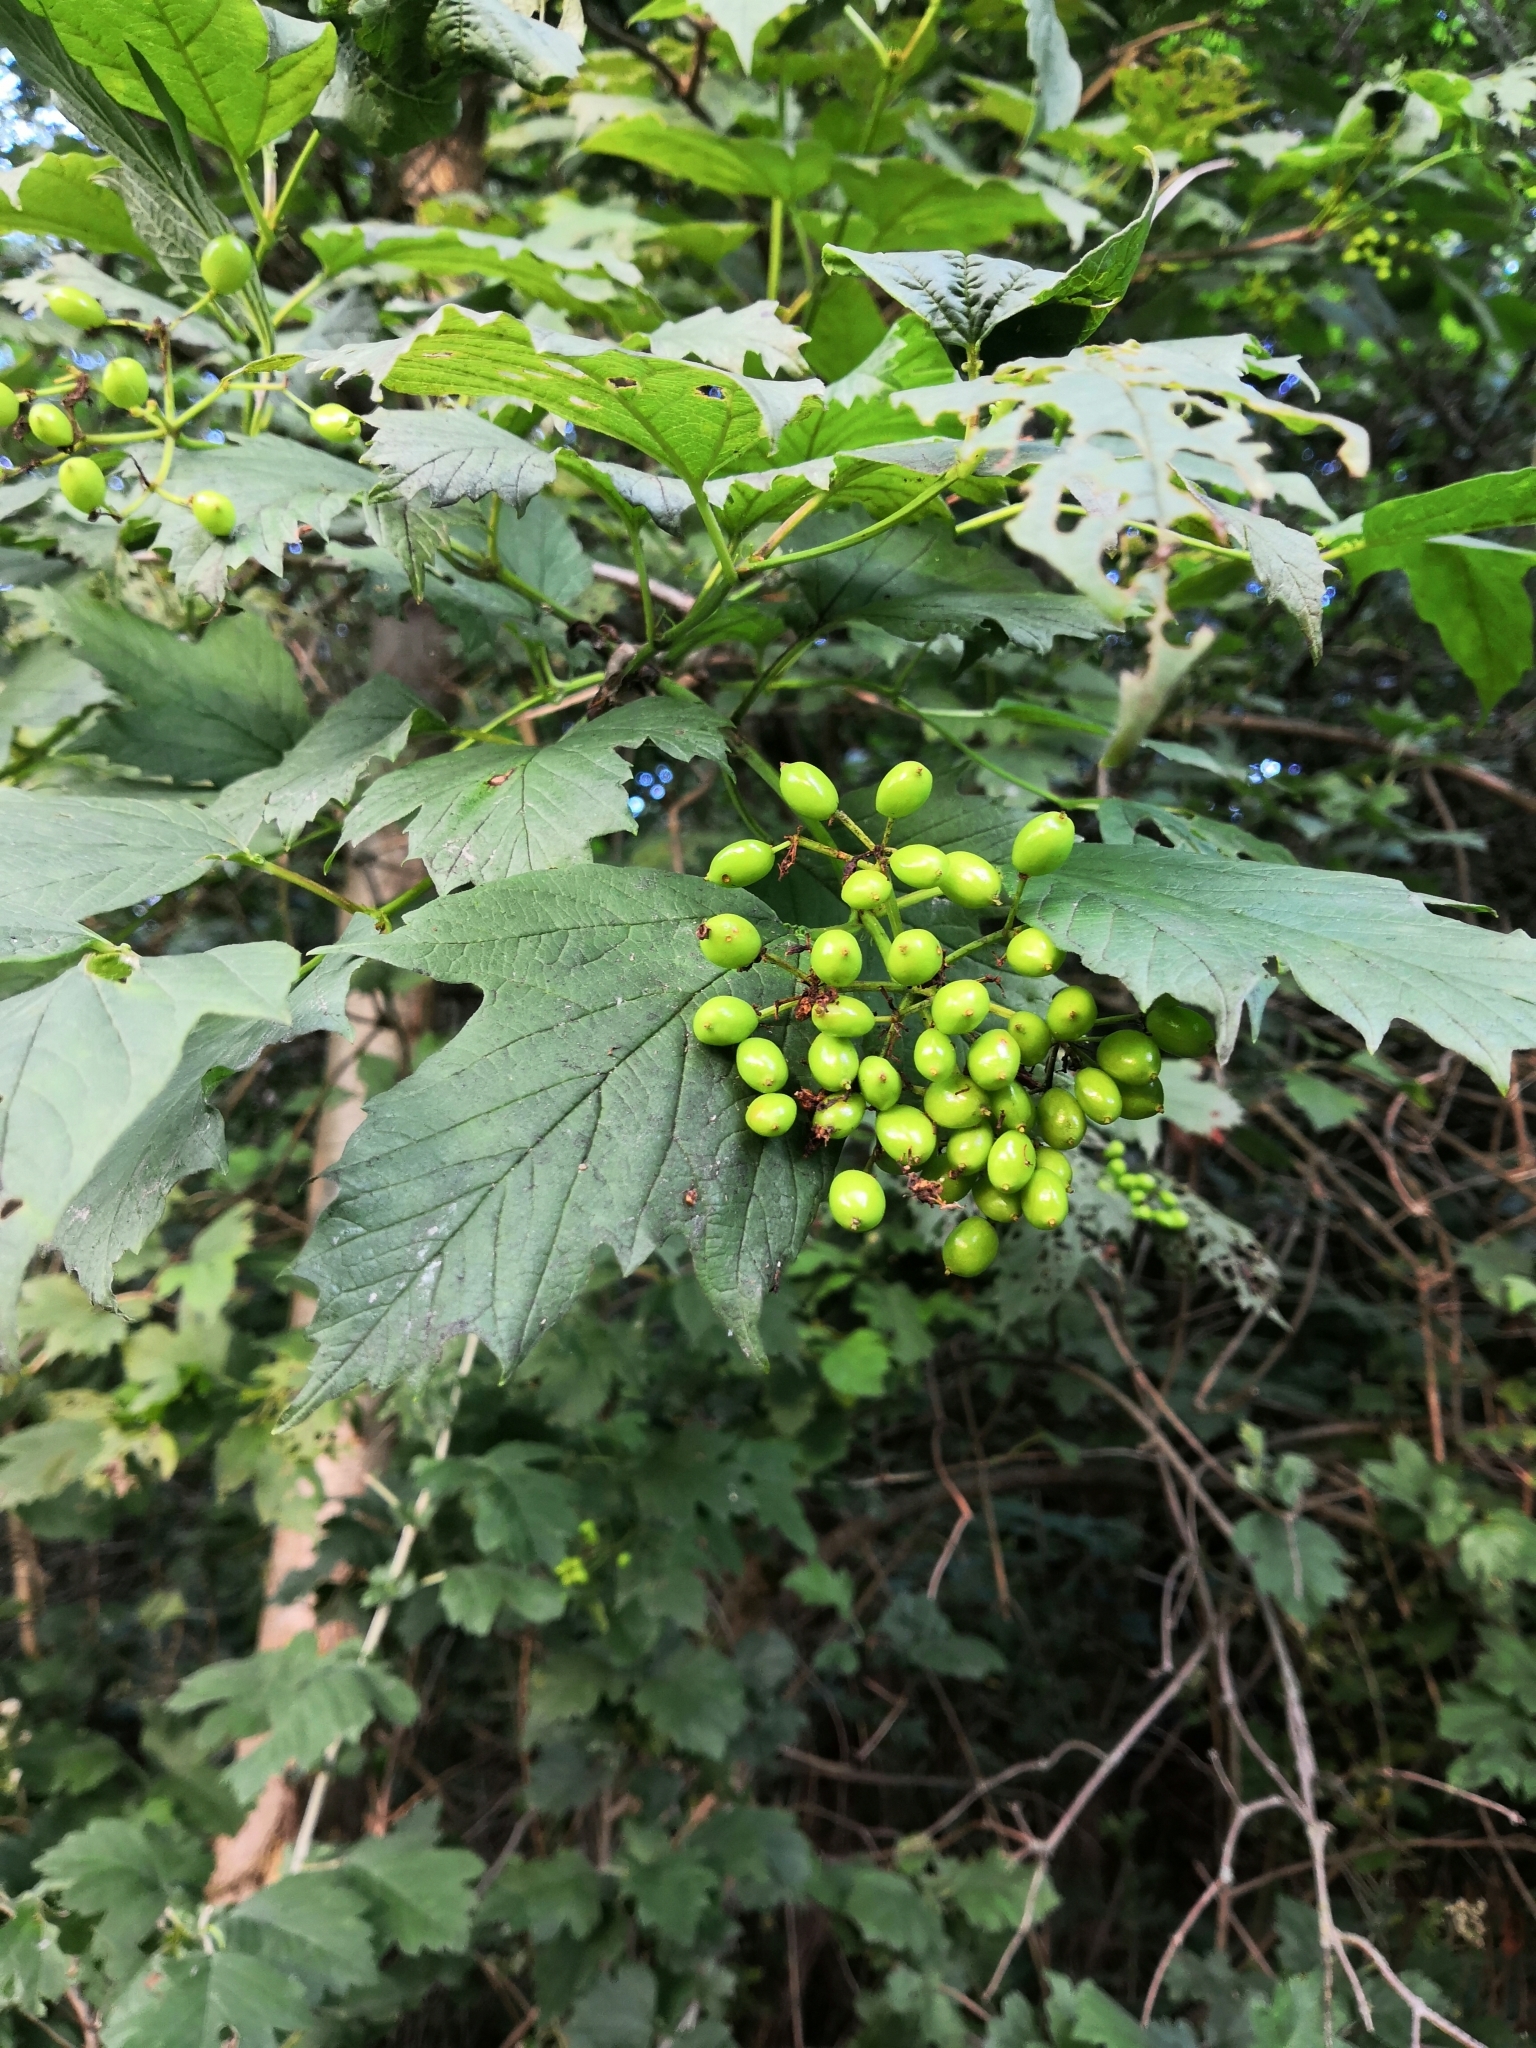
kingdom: Plantae
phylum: Tracheophyta
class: Magnoliopsida
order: Dipsacales
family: Viburnaceae
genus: Viburnum
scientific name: Viburnum opulus
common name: Guelder-rose
